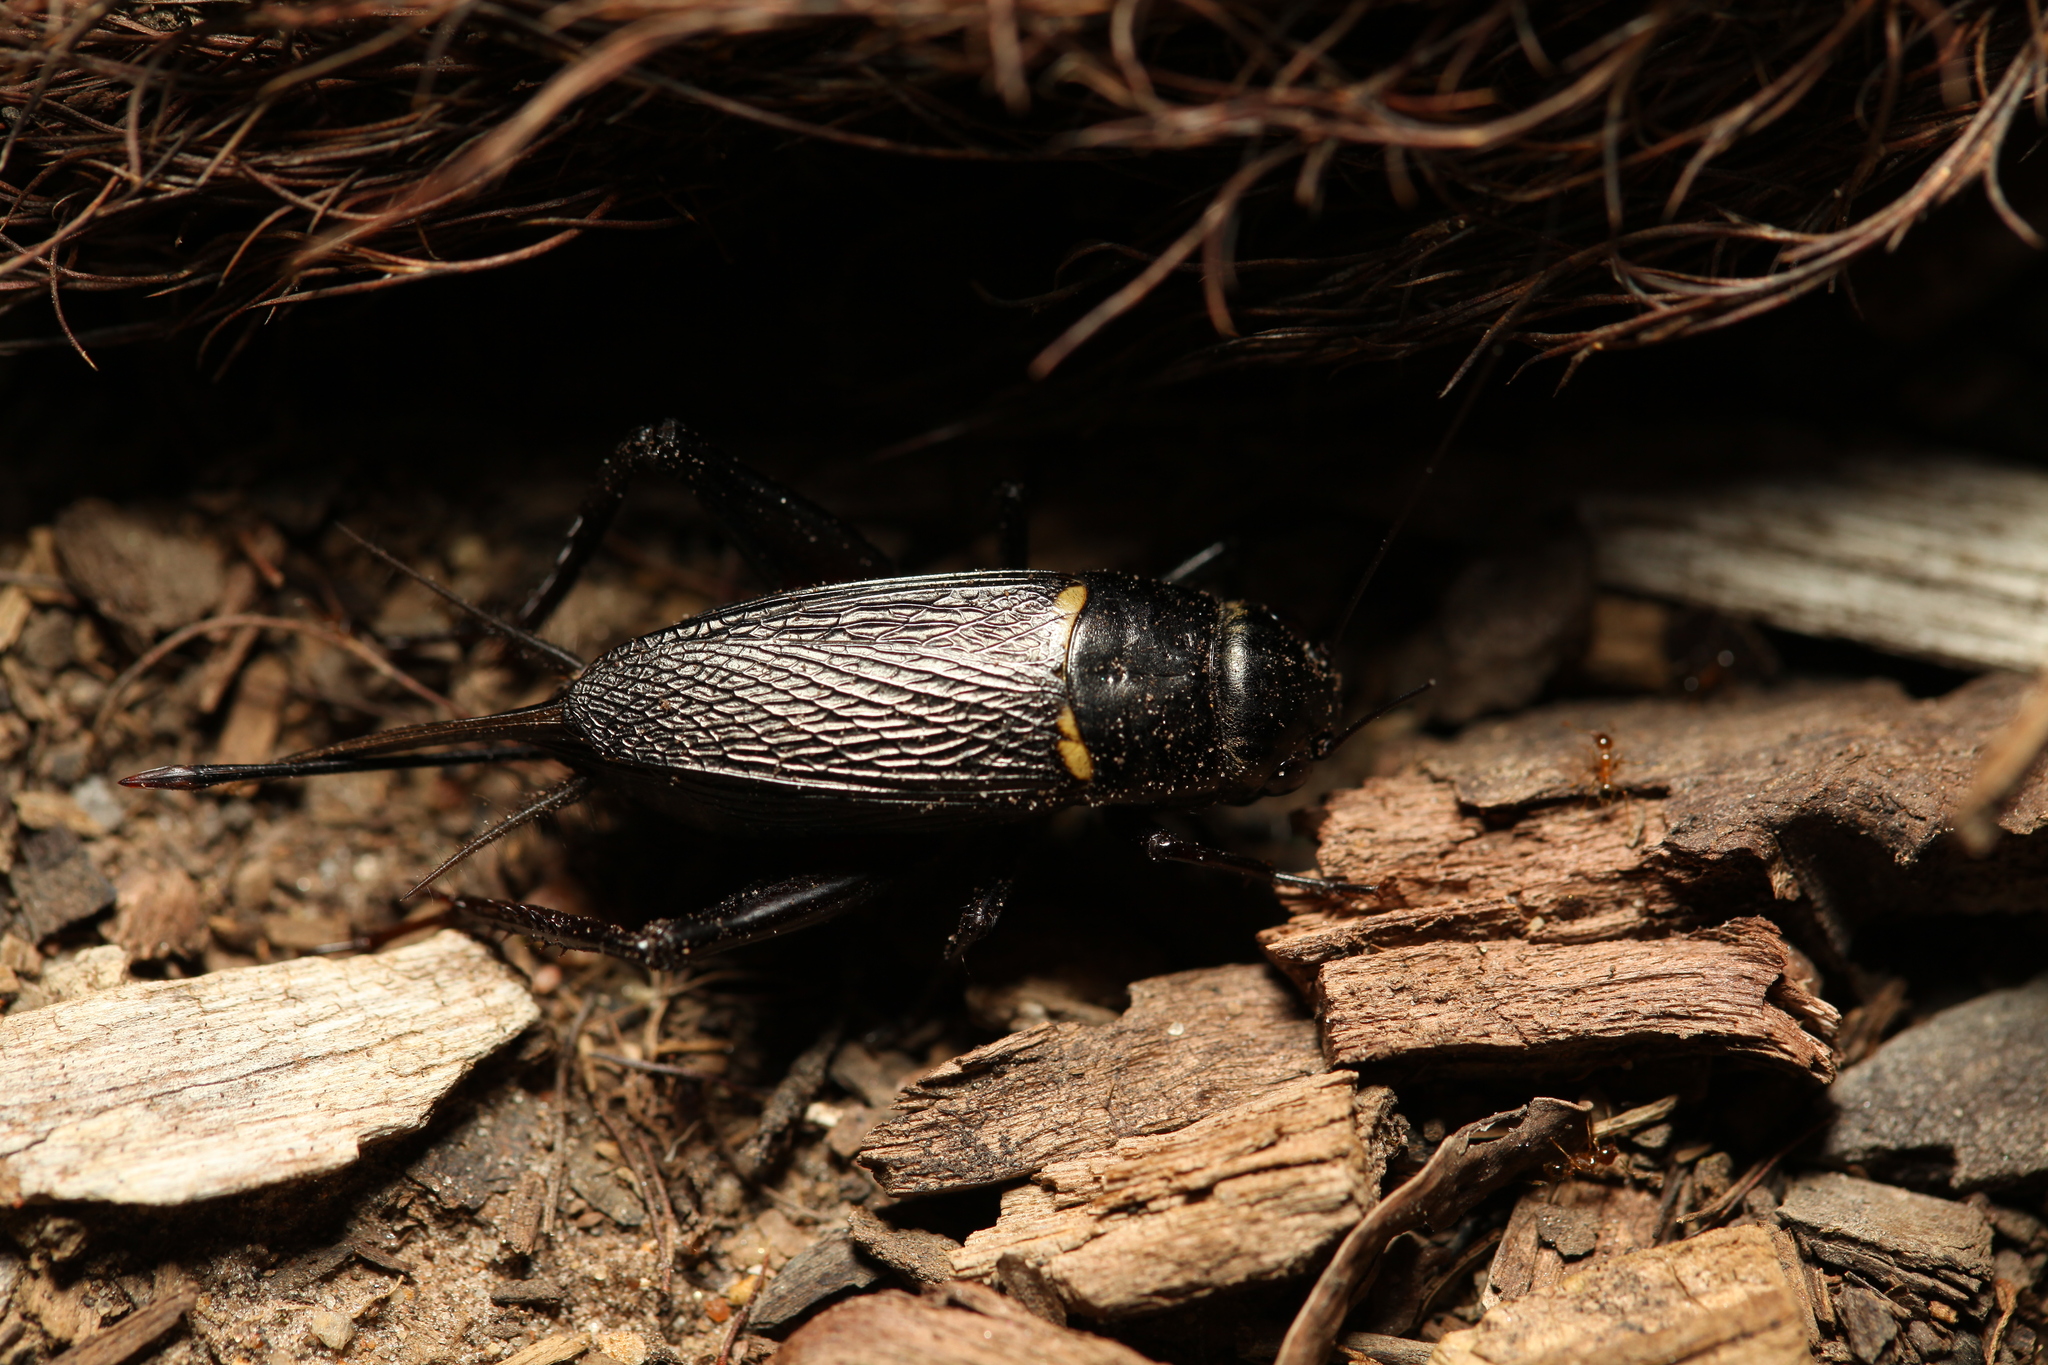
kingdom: Animalia
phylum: Arthropoda
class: Insecta
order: Orthoptera
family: Gryllidae
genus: Gryllus
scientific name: Gryllus bimaculatus
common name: Two-spotted cricket
